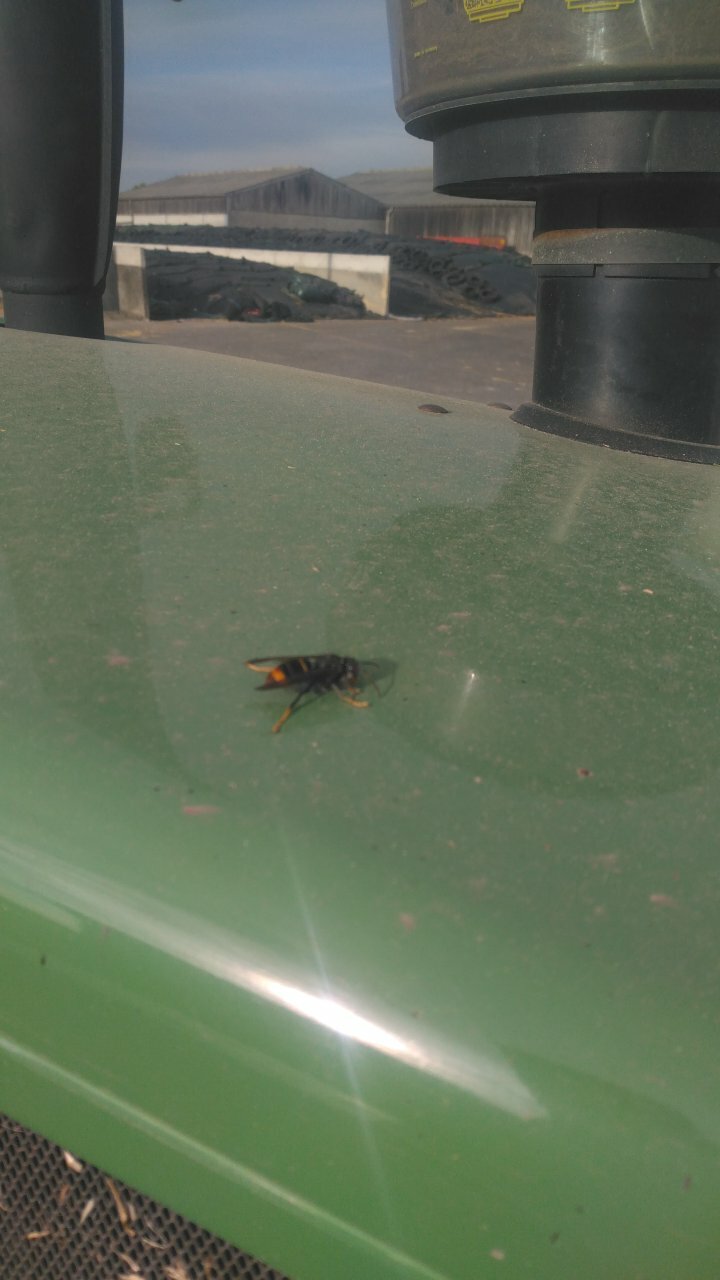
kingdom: Animalia
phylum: Arthropoda
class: Insecta
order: Hymenoptera
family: Vespidae
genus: Vespa
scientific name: Vespa velutina
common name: Asian hornet
